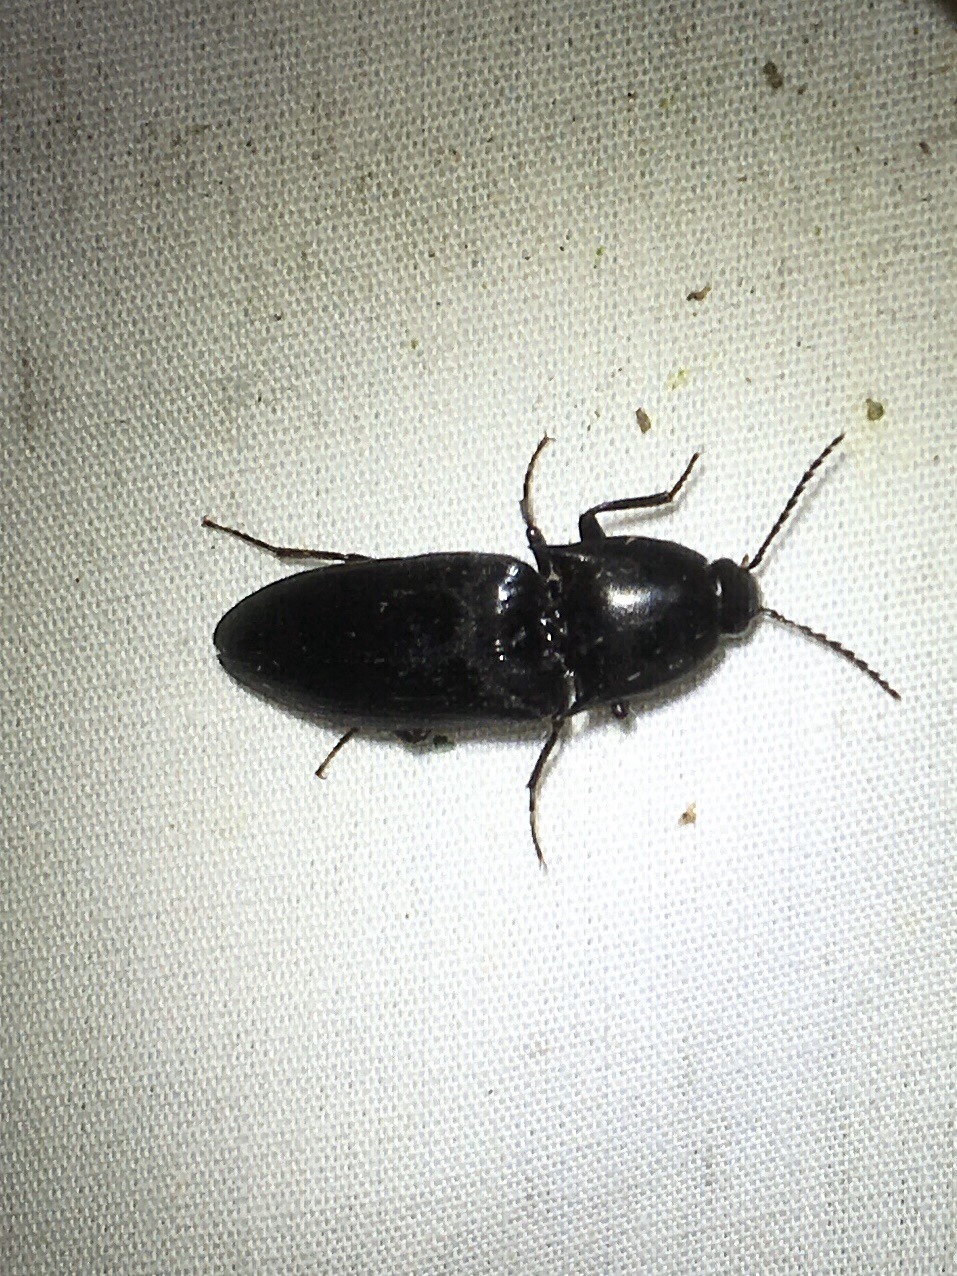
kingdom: Animalia
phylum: Arthropoda
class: Insecta
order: Coleoptera
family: Elateridae
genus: Elater
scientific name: Elater abruptus
